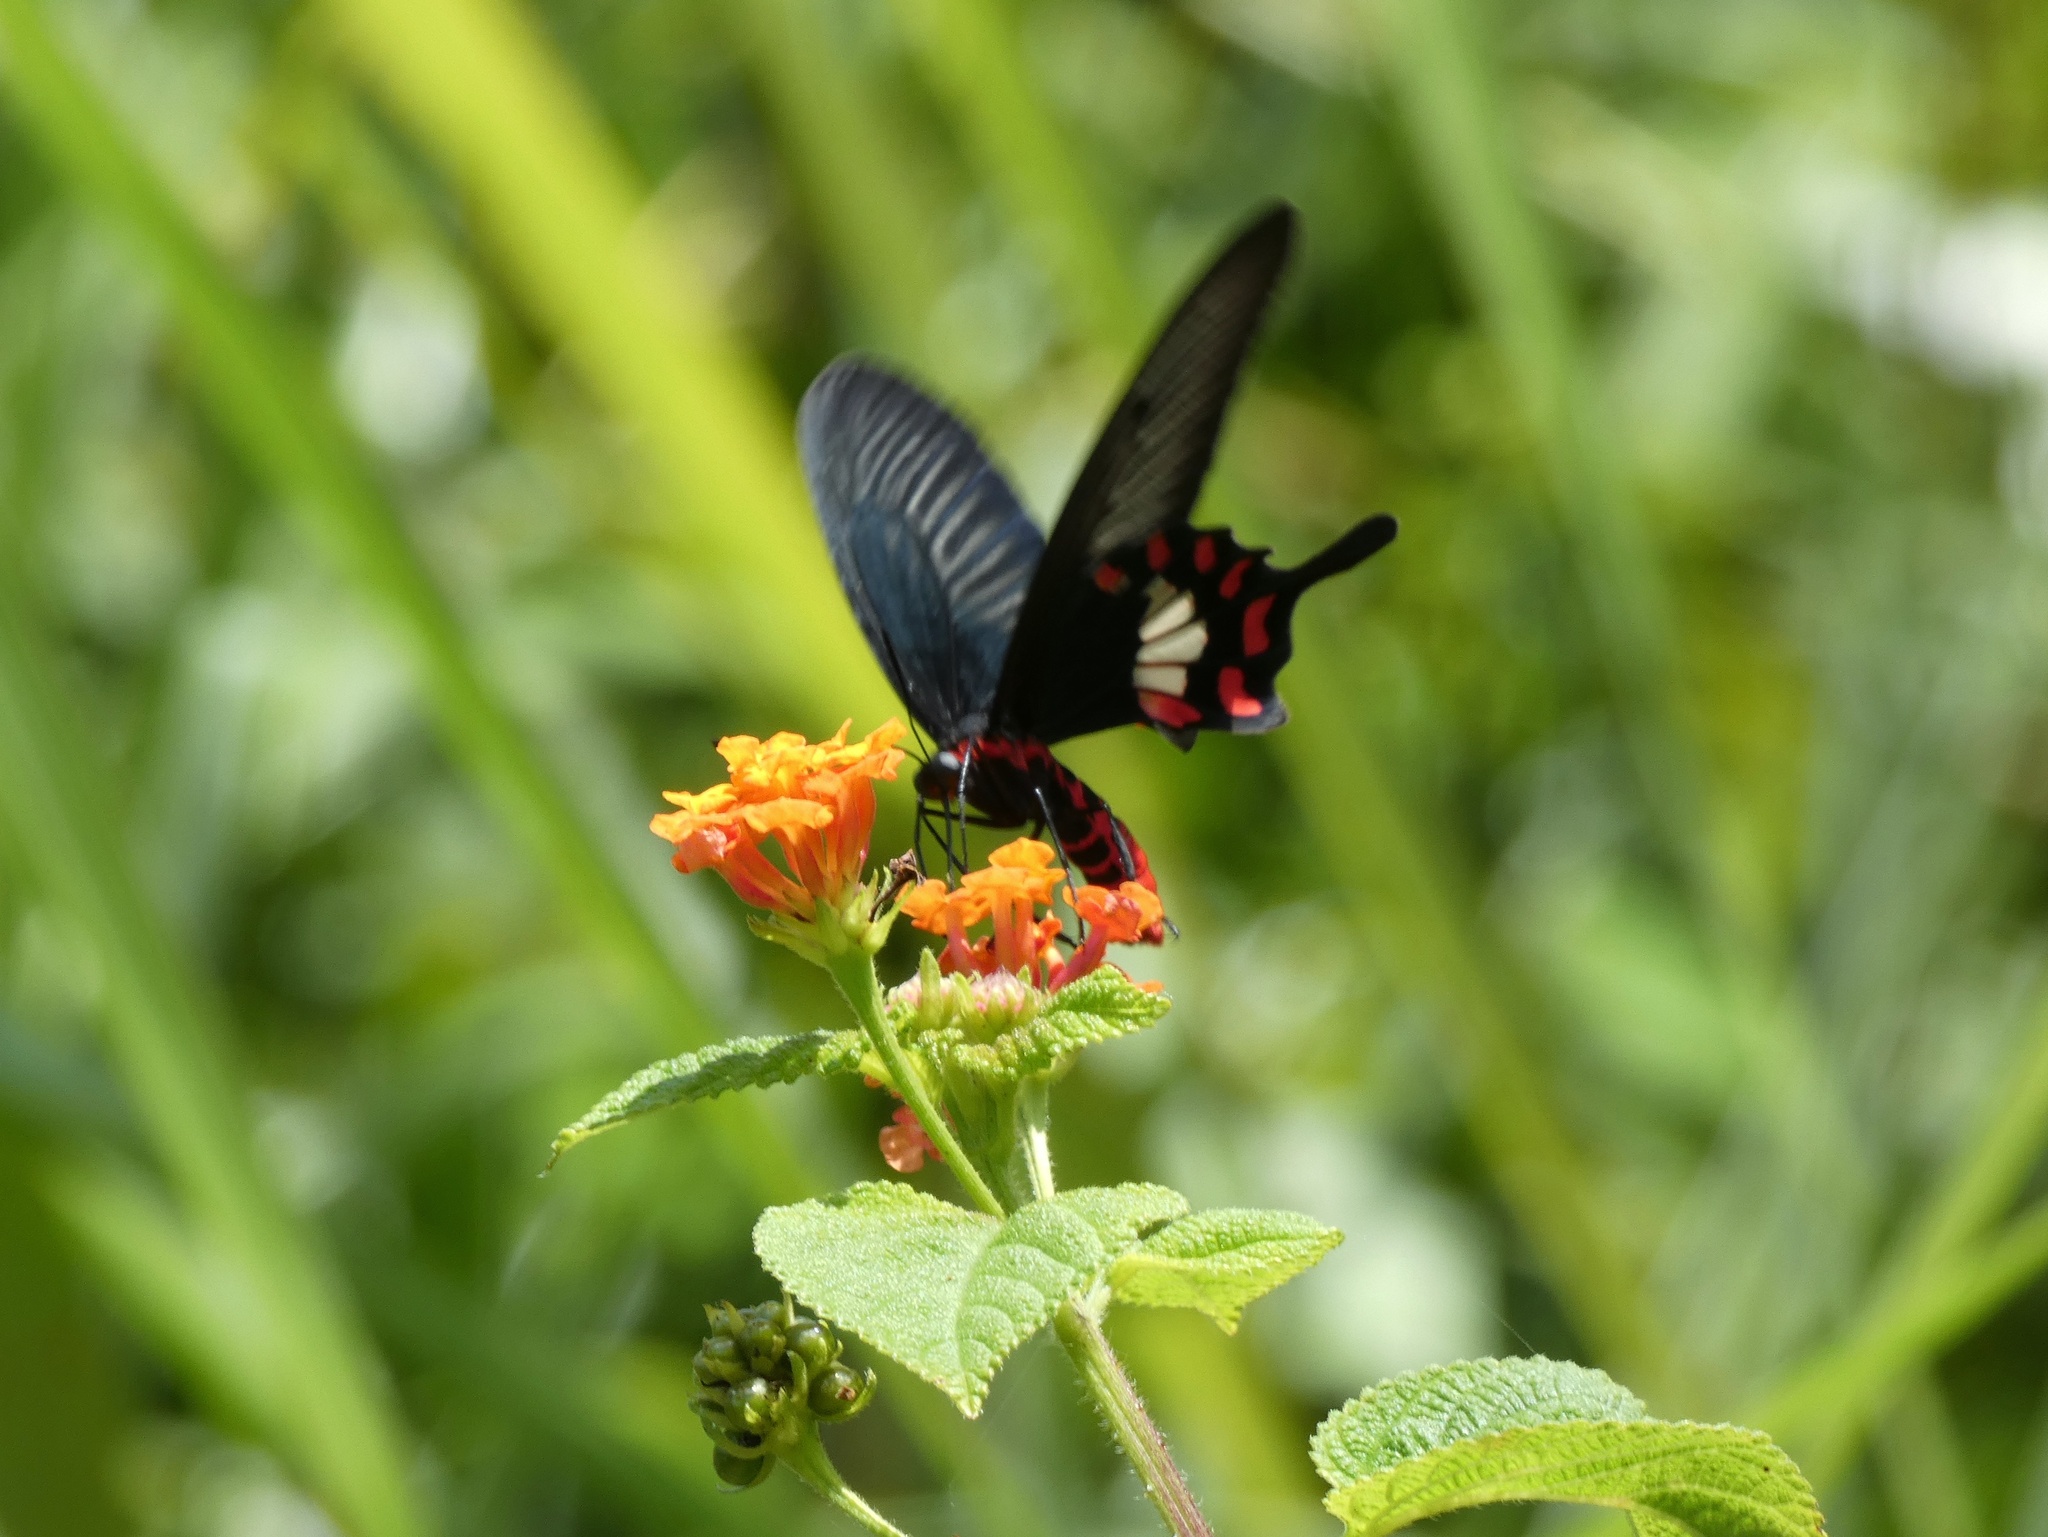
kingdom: Animalia
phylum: Arthropoda
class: Insecta
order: Lepidoptera
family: Papilionidae
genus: Pachliopta
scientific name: Pachliopta leytensis
